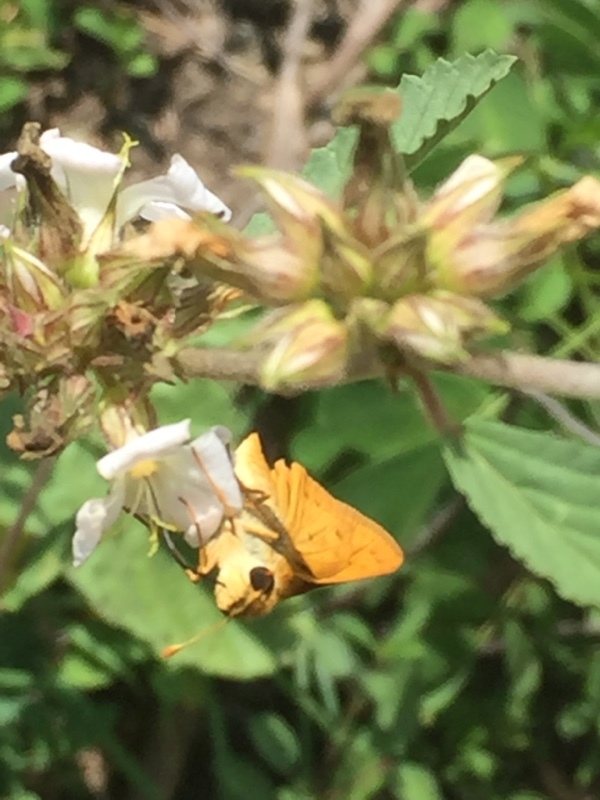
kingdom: Animalia
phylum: Arthropoda
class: Insecta
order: Lepidoptera
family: Hesperiidae
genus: Hylephila
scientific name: Hylephila phyleus
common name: Fiery skipper
